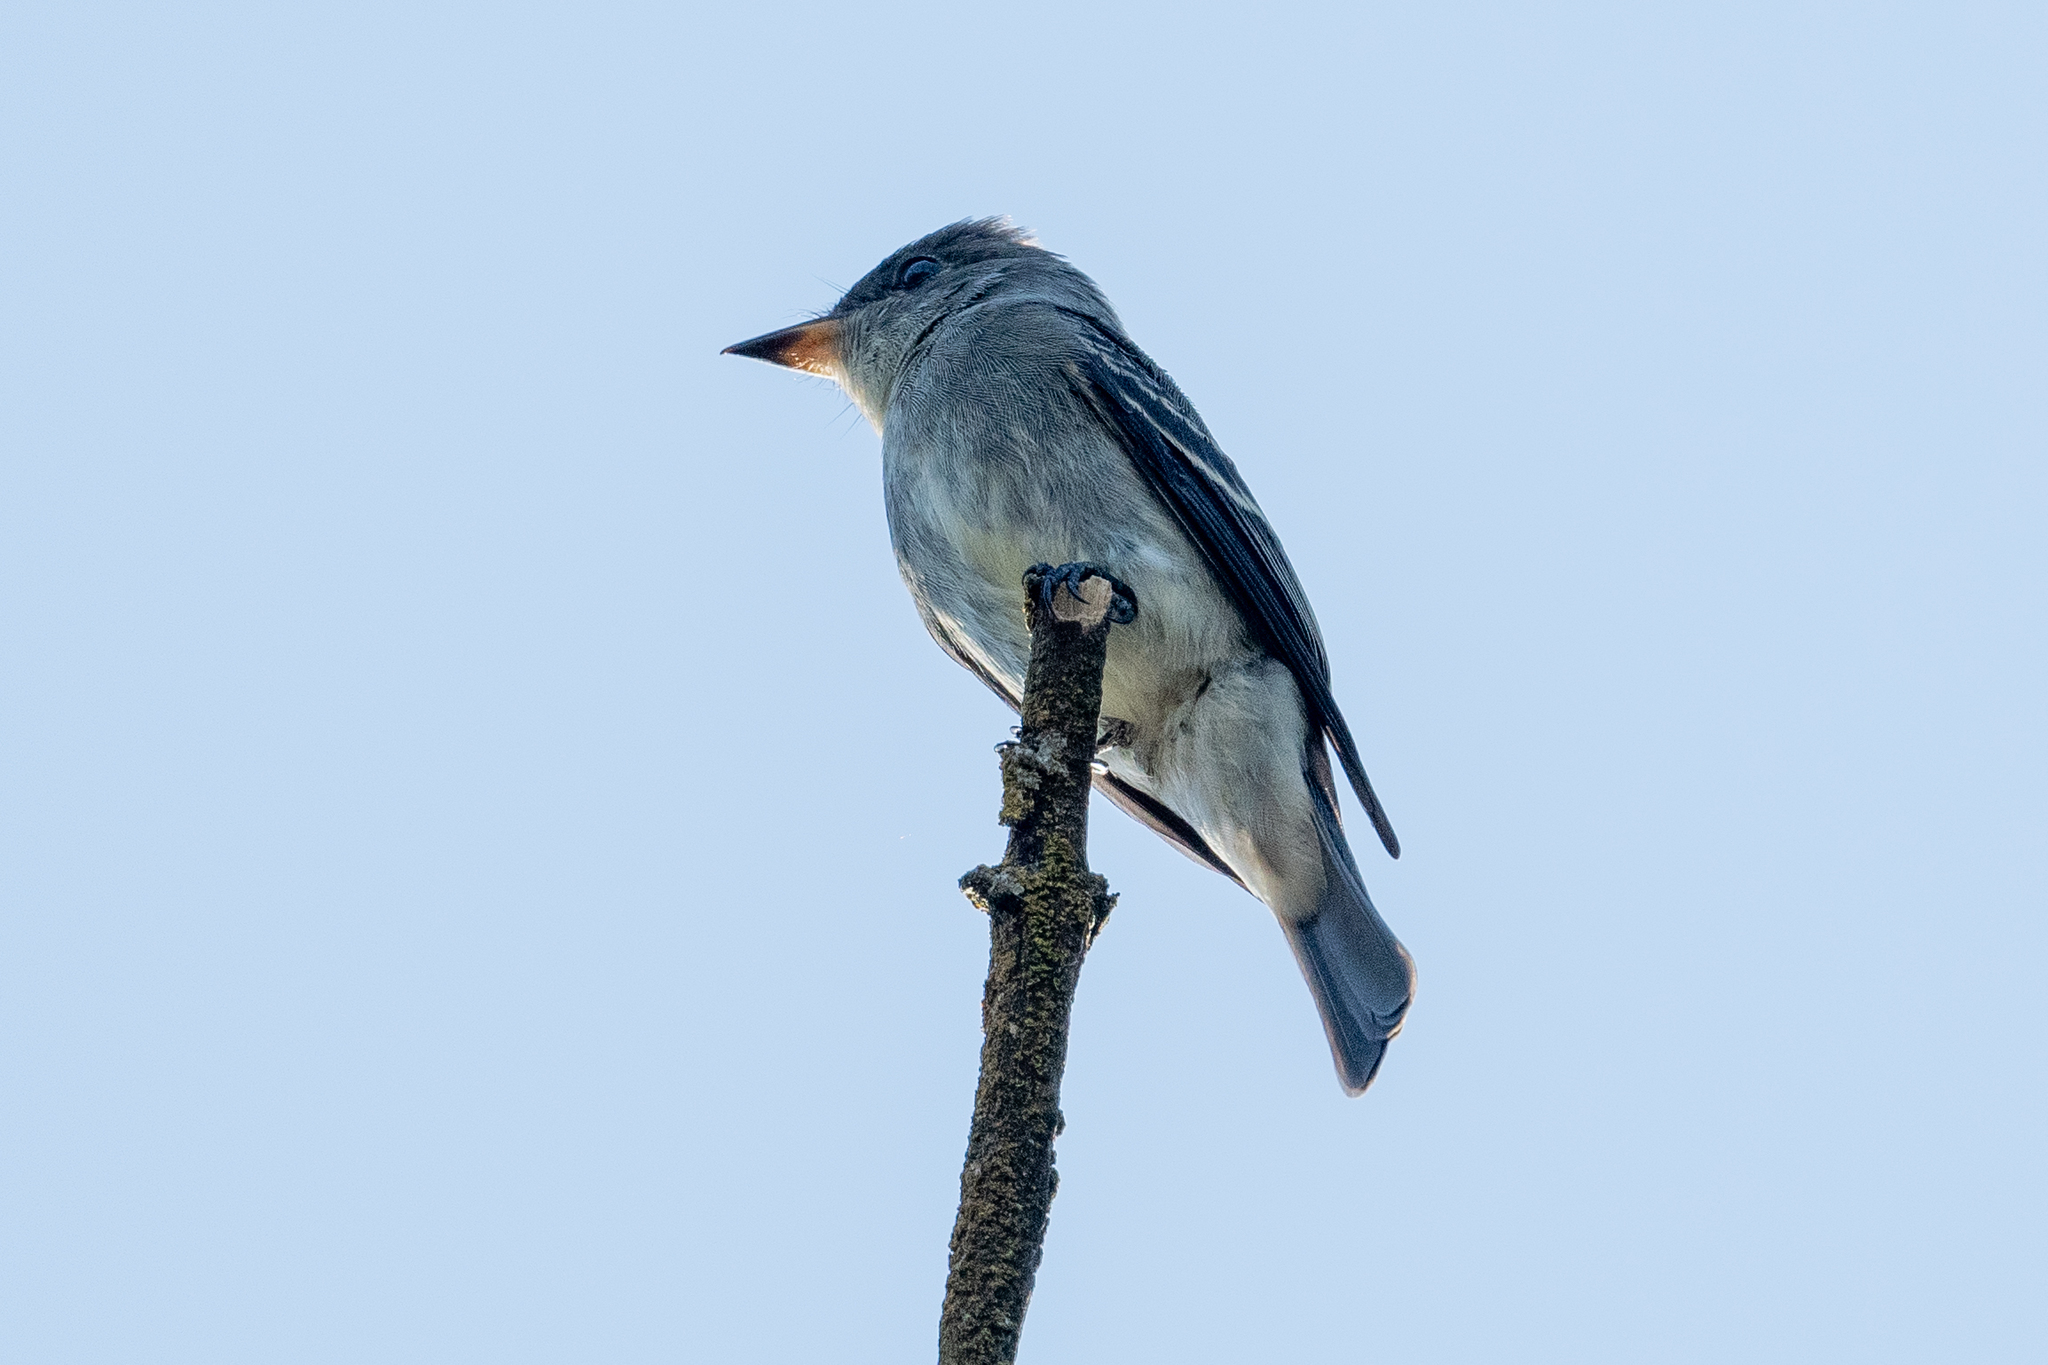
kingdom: Animalia
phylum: Chordata
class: Aves
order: Passeriformes
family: Tyrannidae
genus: Contopus
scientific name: Contopus sordidulus
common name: Western wood-pewee
